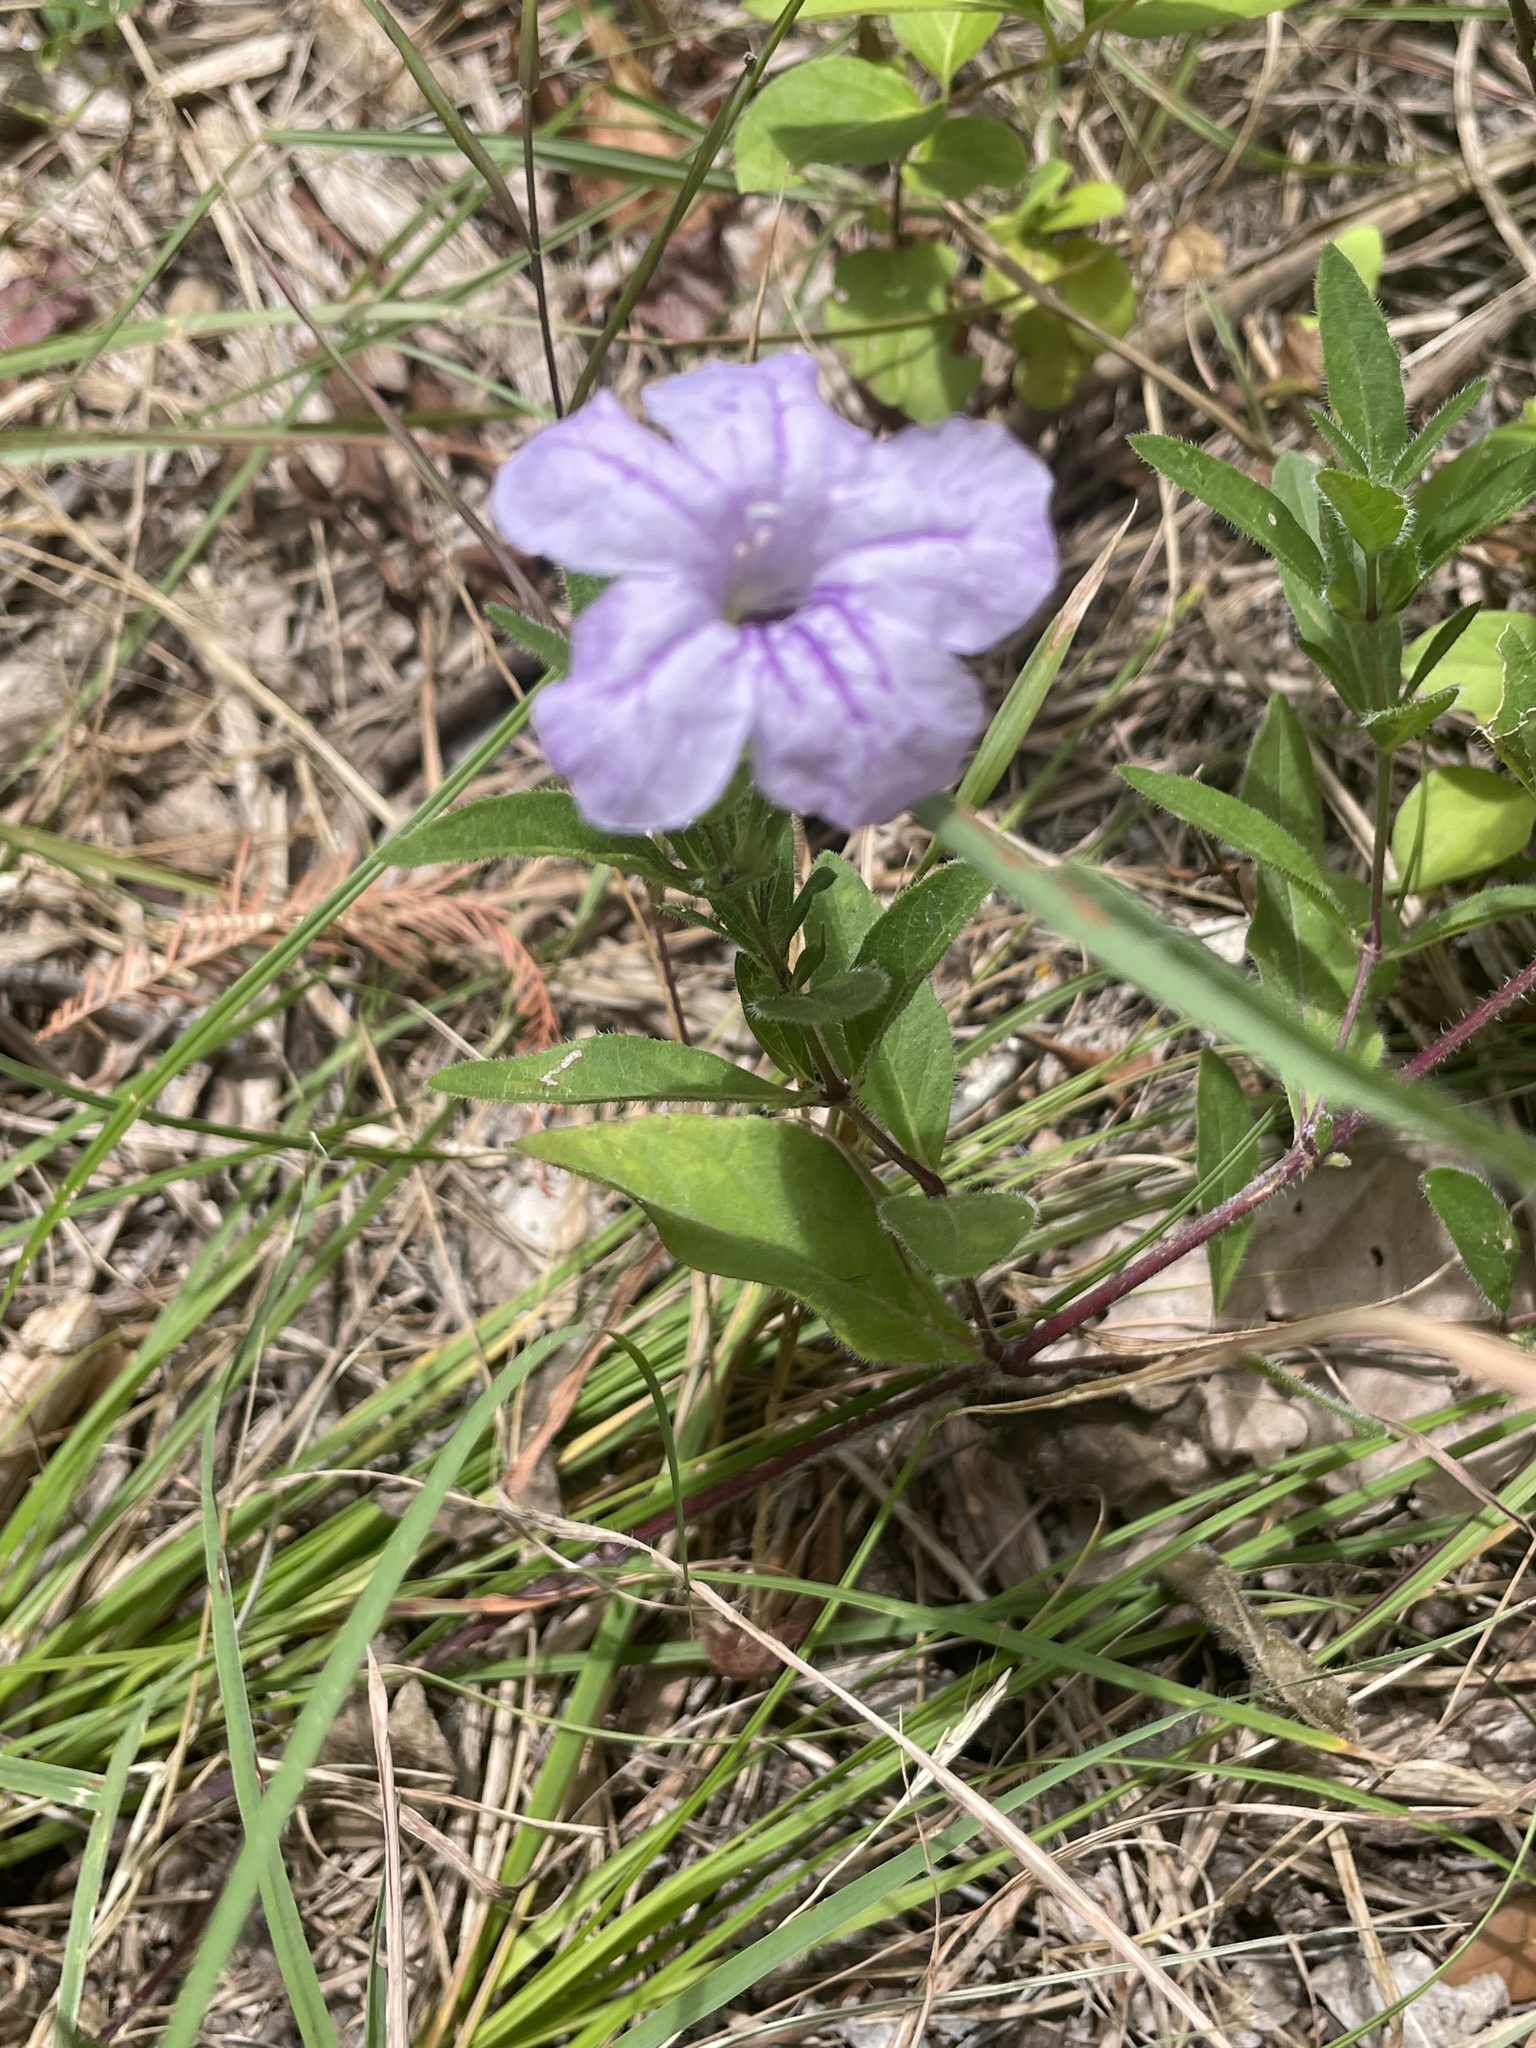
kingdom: Plantae
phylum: Tracheophyta
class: Magnoliopsida
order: Lamiales
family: Acanthaceae
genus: Ruellia
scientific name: Ruellia humilis
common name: Fringe-leaf ruellia
